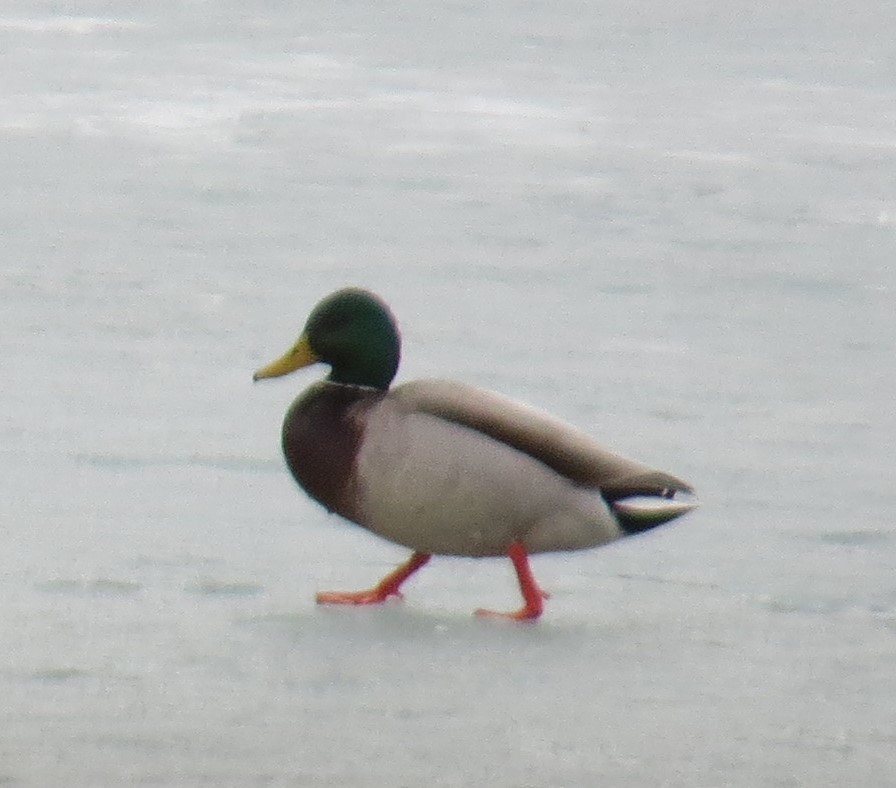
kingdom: Animalia
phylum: Chordata
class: Aves
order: Anseriformes
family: Anatidae
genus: Anas
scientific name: Anas platyrhynchos
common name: Mallard
